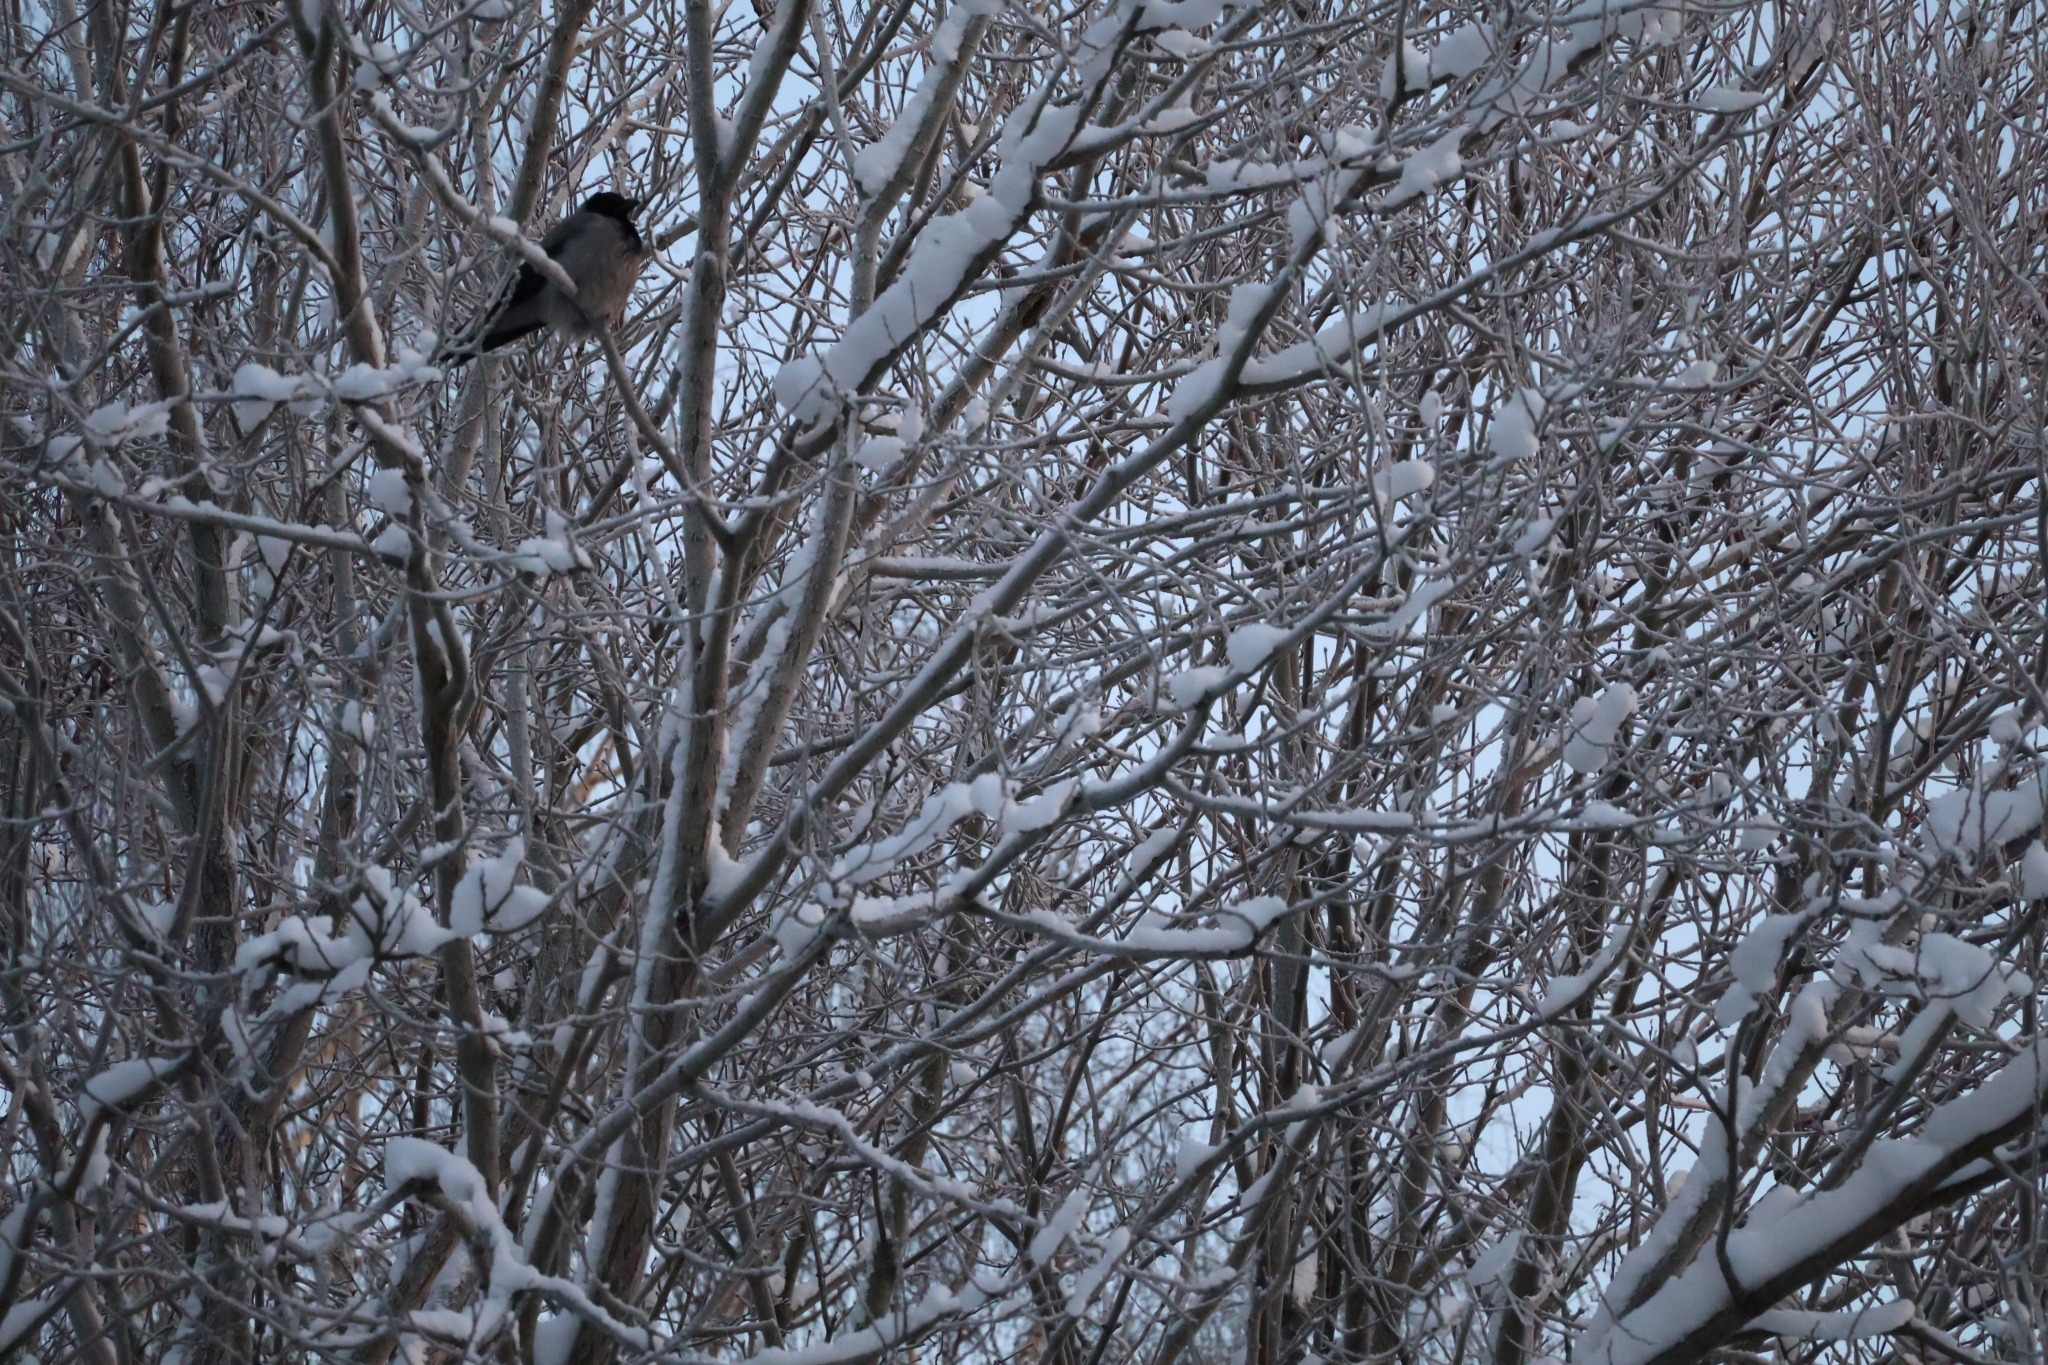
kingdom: Animalia
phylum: Chordata
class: Aves
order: Passeriformes
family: Corvidae
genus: Corvus
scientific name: Corvus cornix
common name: Hooded crow
